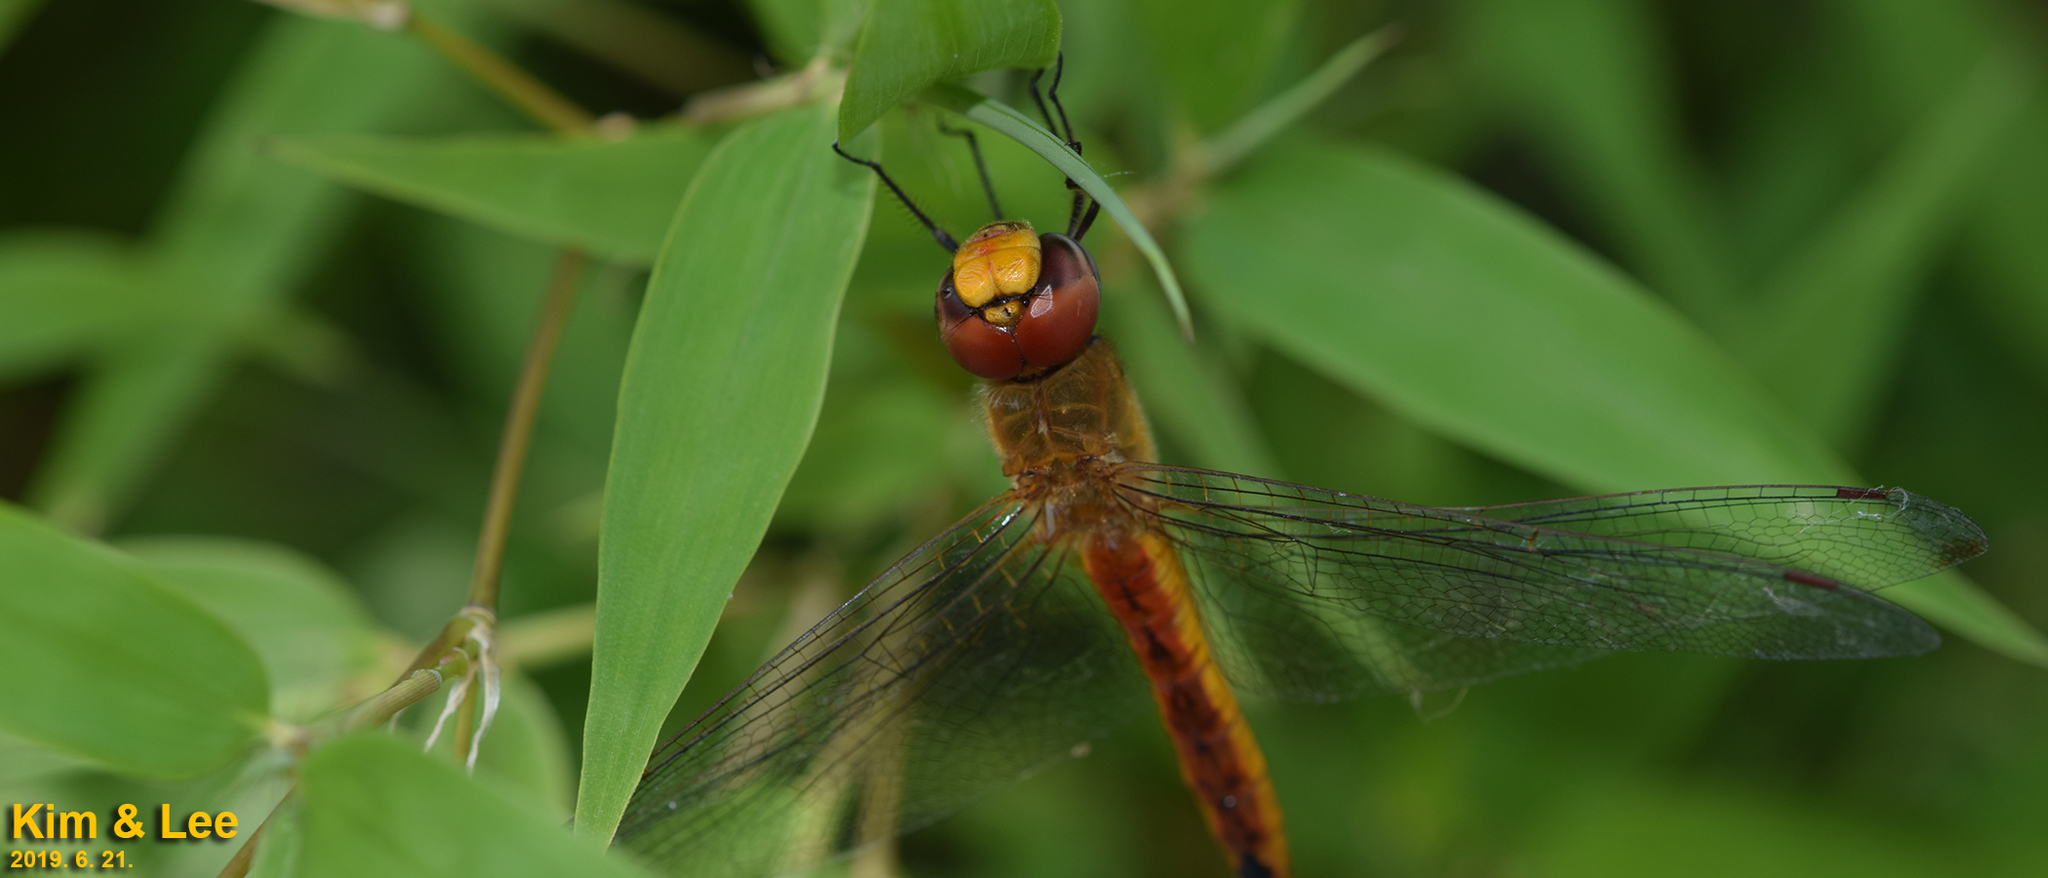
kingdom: Animalia
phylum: Arthropoda
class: Insecta
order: Odonata
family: Libellulidae
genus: Pantala
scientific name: Pantala flavescens
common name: Wandering glider
